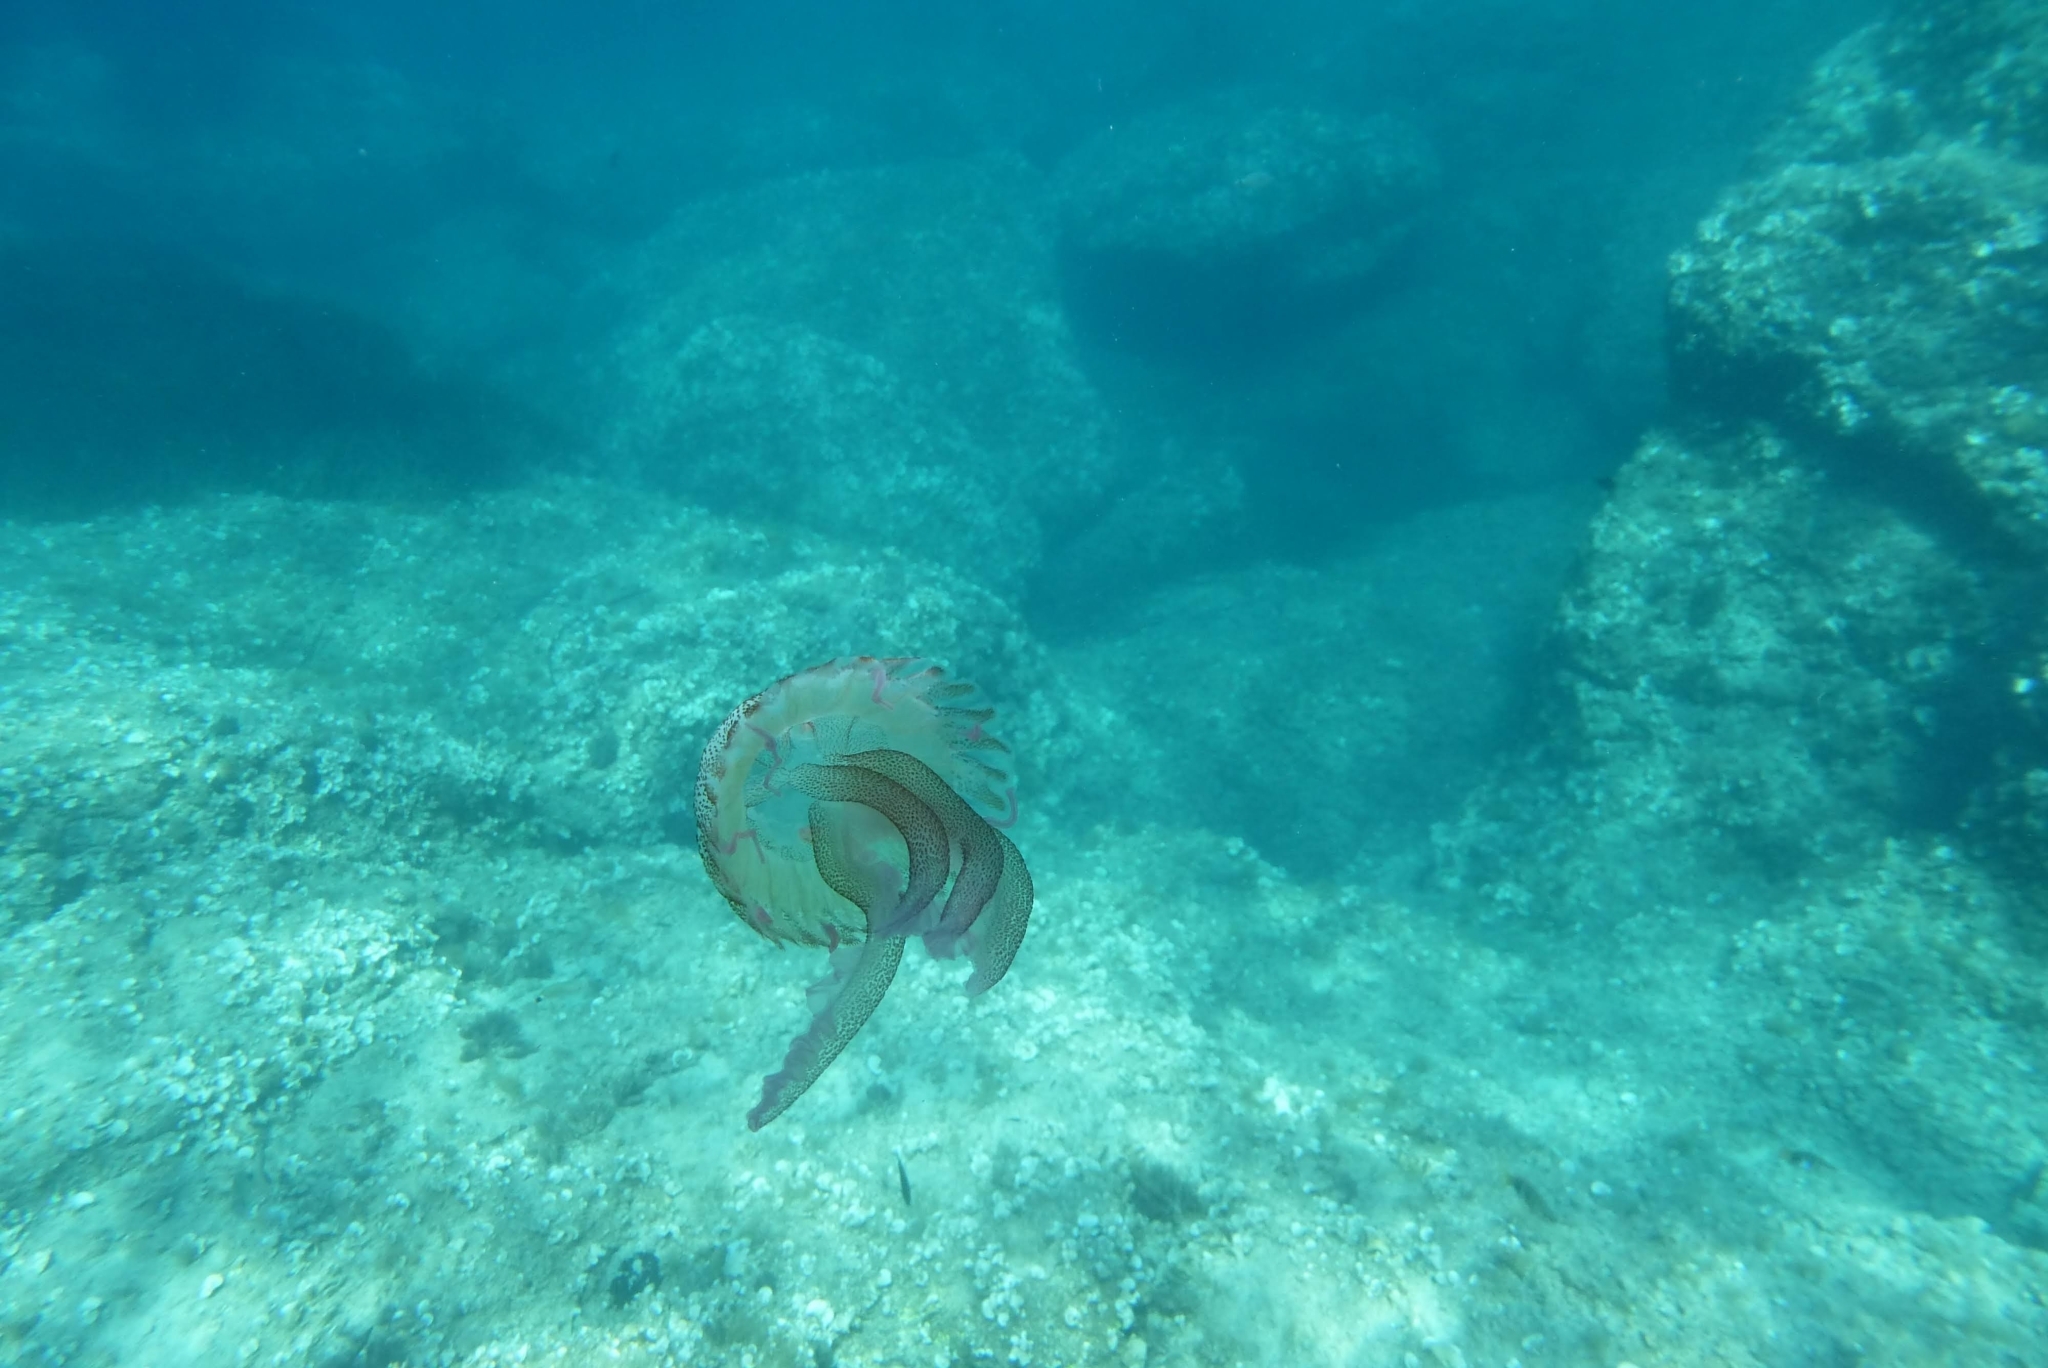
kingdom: Animalia
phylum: Cnidaria
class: Scyphozoa
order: Semaeostomeae
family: Pelagiidae
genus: Pelagia
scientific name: Pelagia noctiluca
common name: Mauve stinger
